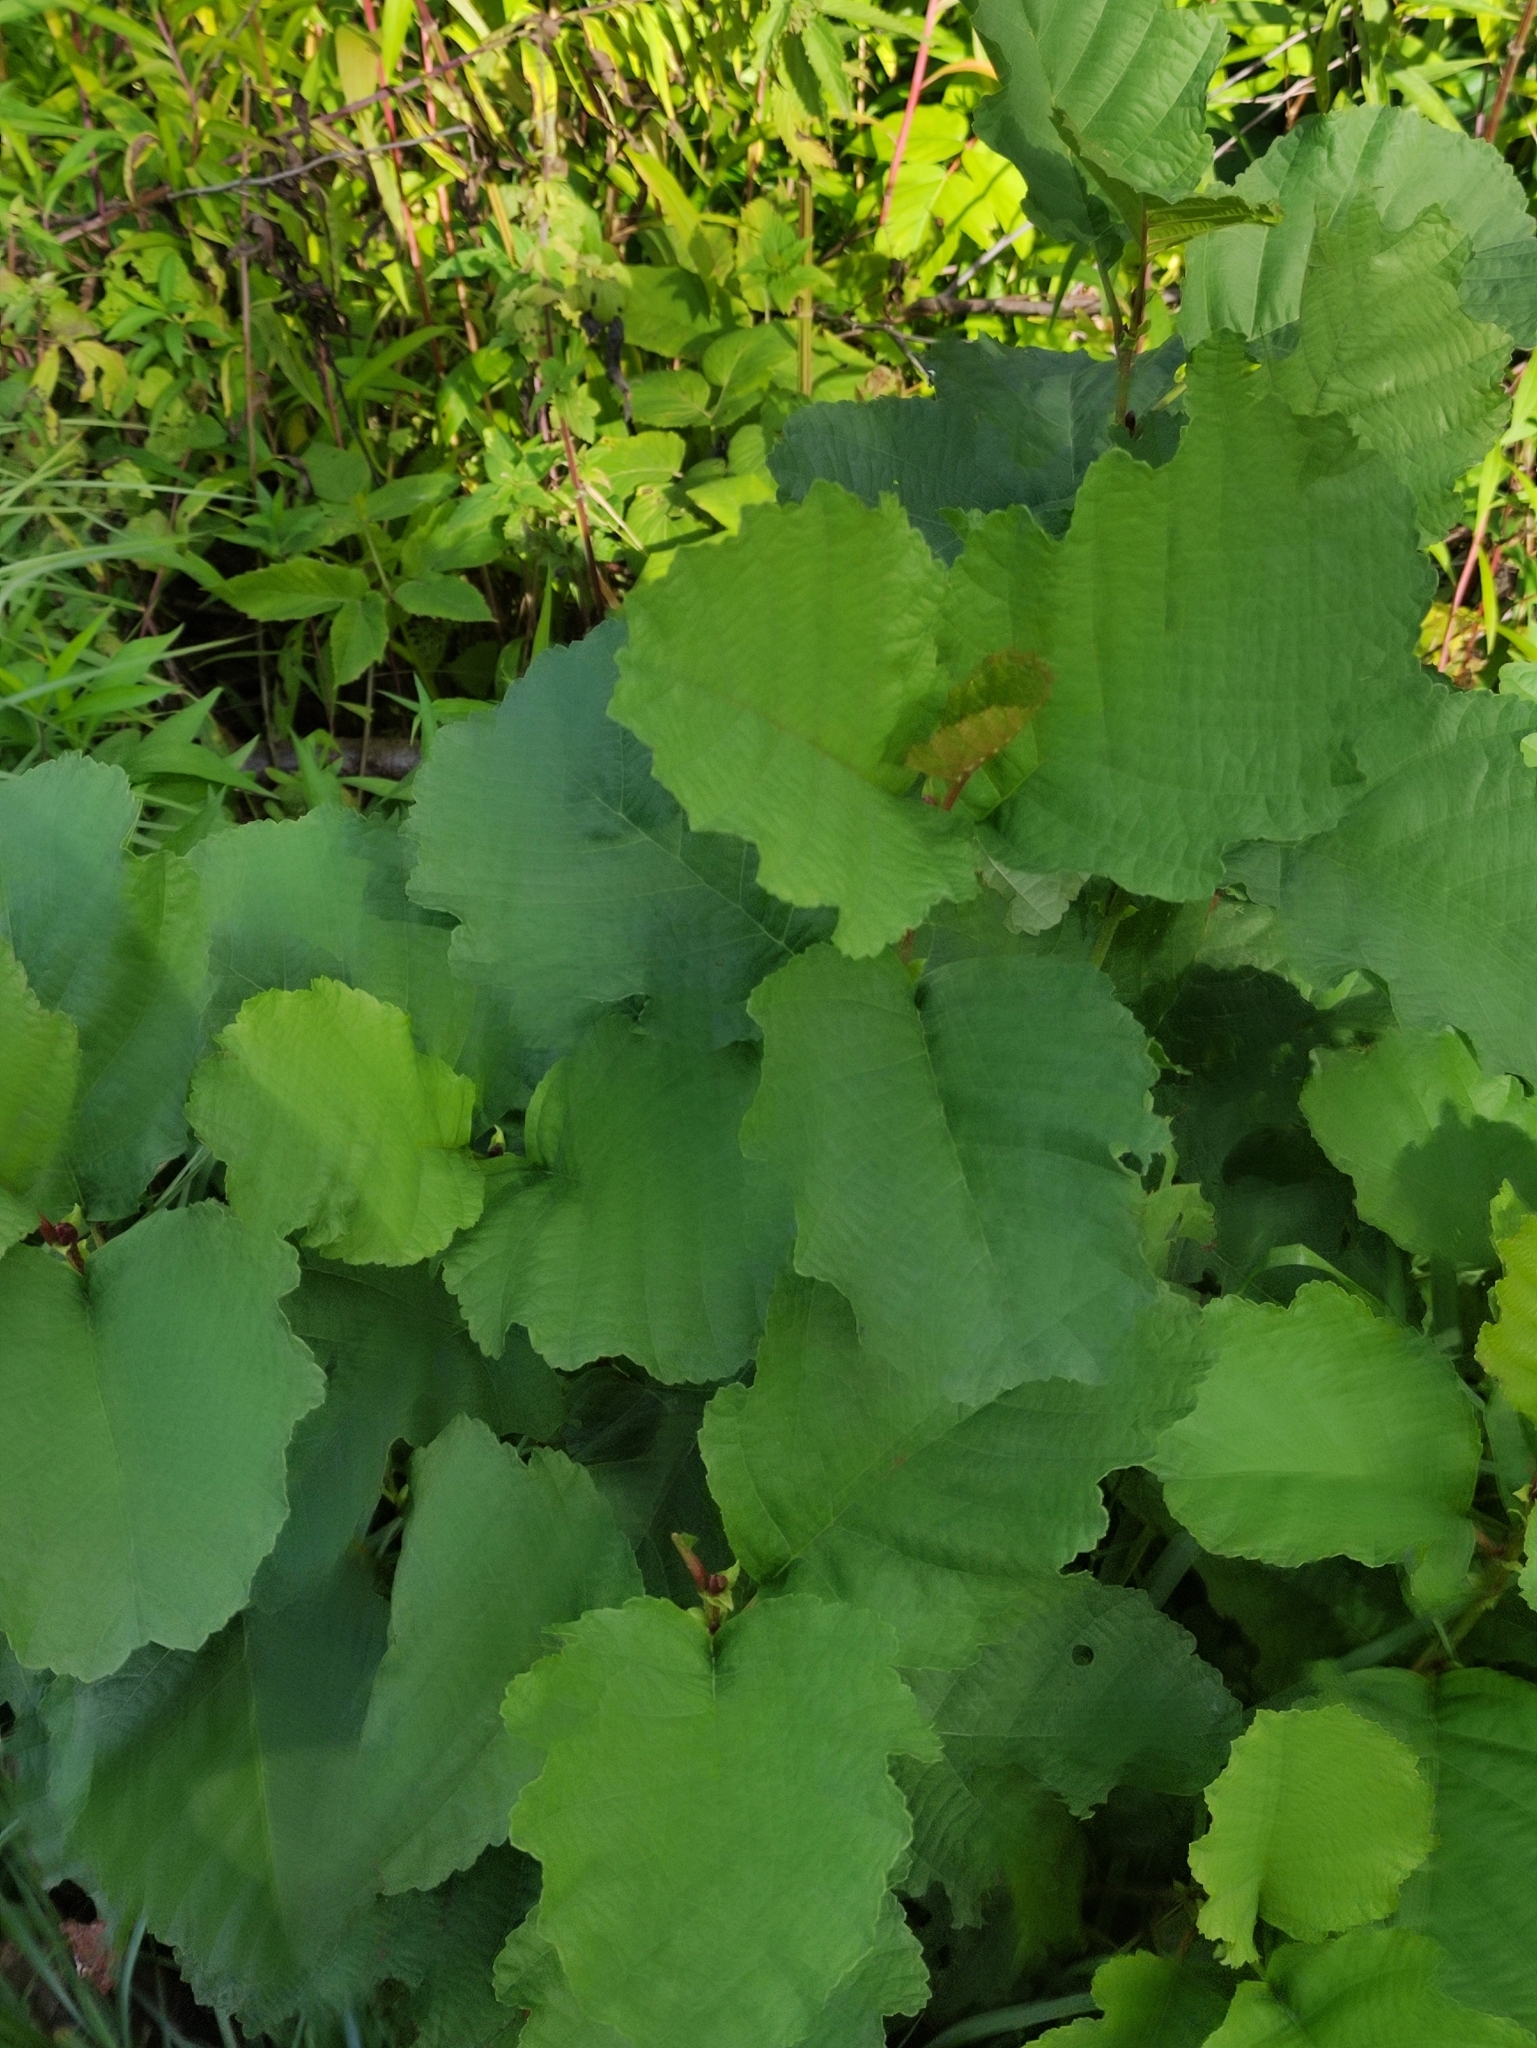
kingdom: Plantae
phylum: Tracheophyta
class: Magnoliopsida
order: Fagales
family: Betulaceae
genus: Alnus
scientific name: Alnus glutinosa
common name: Black alder
